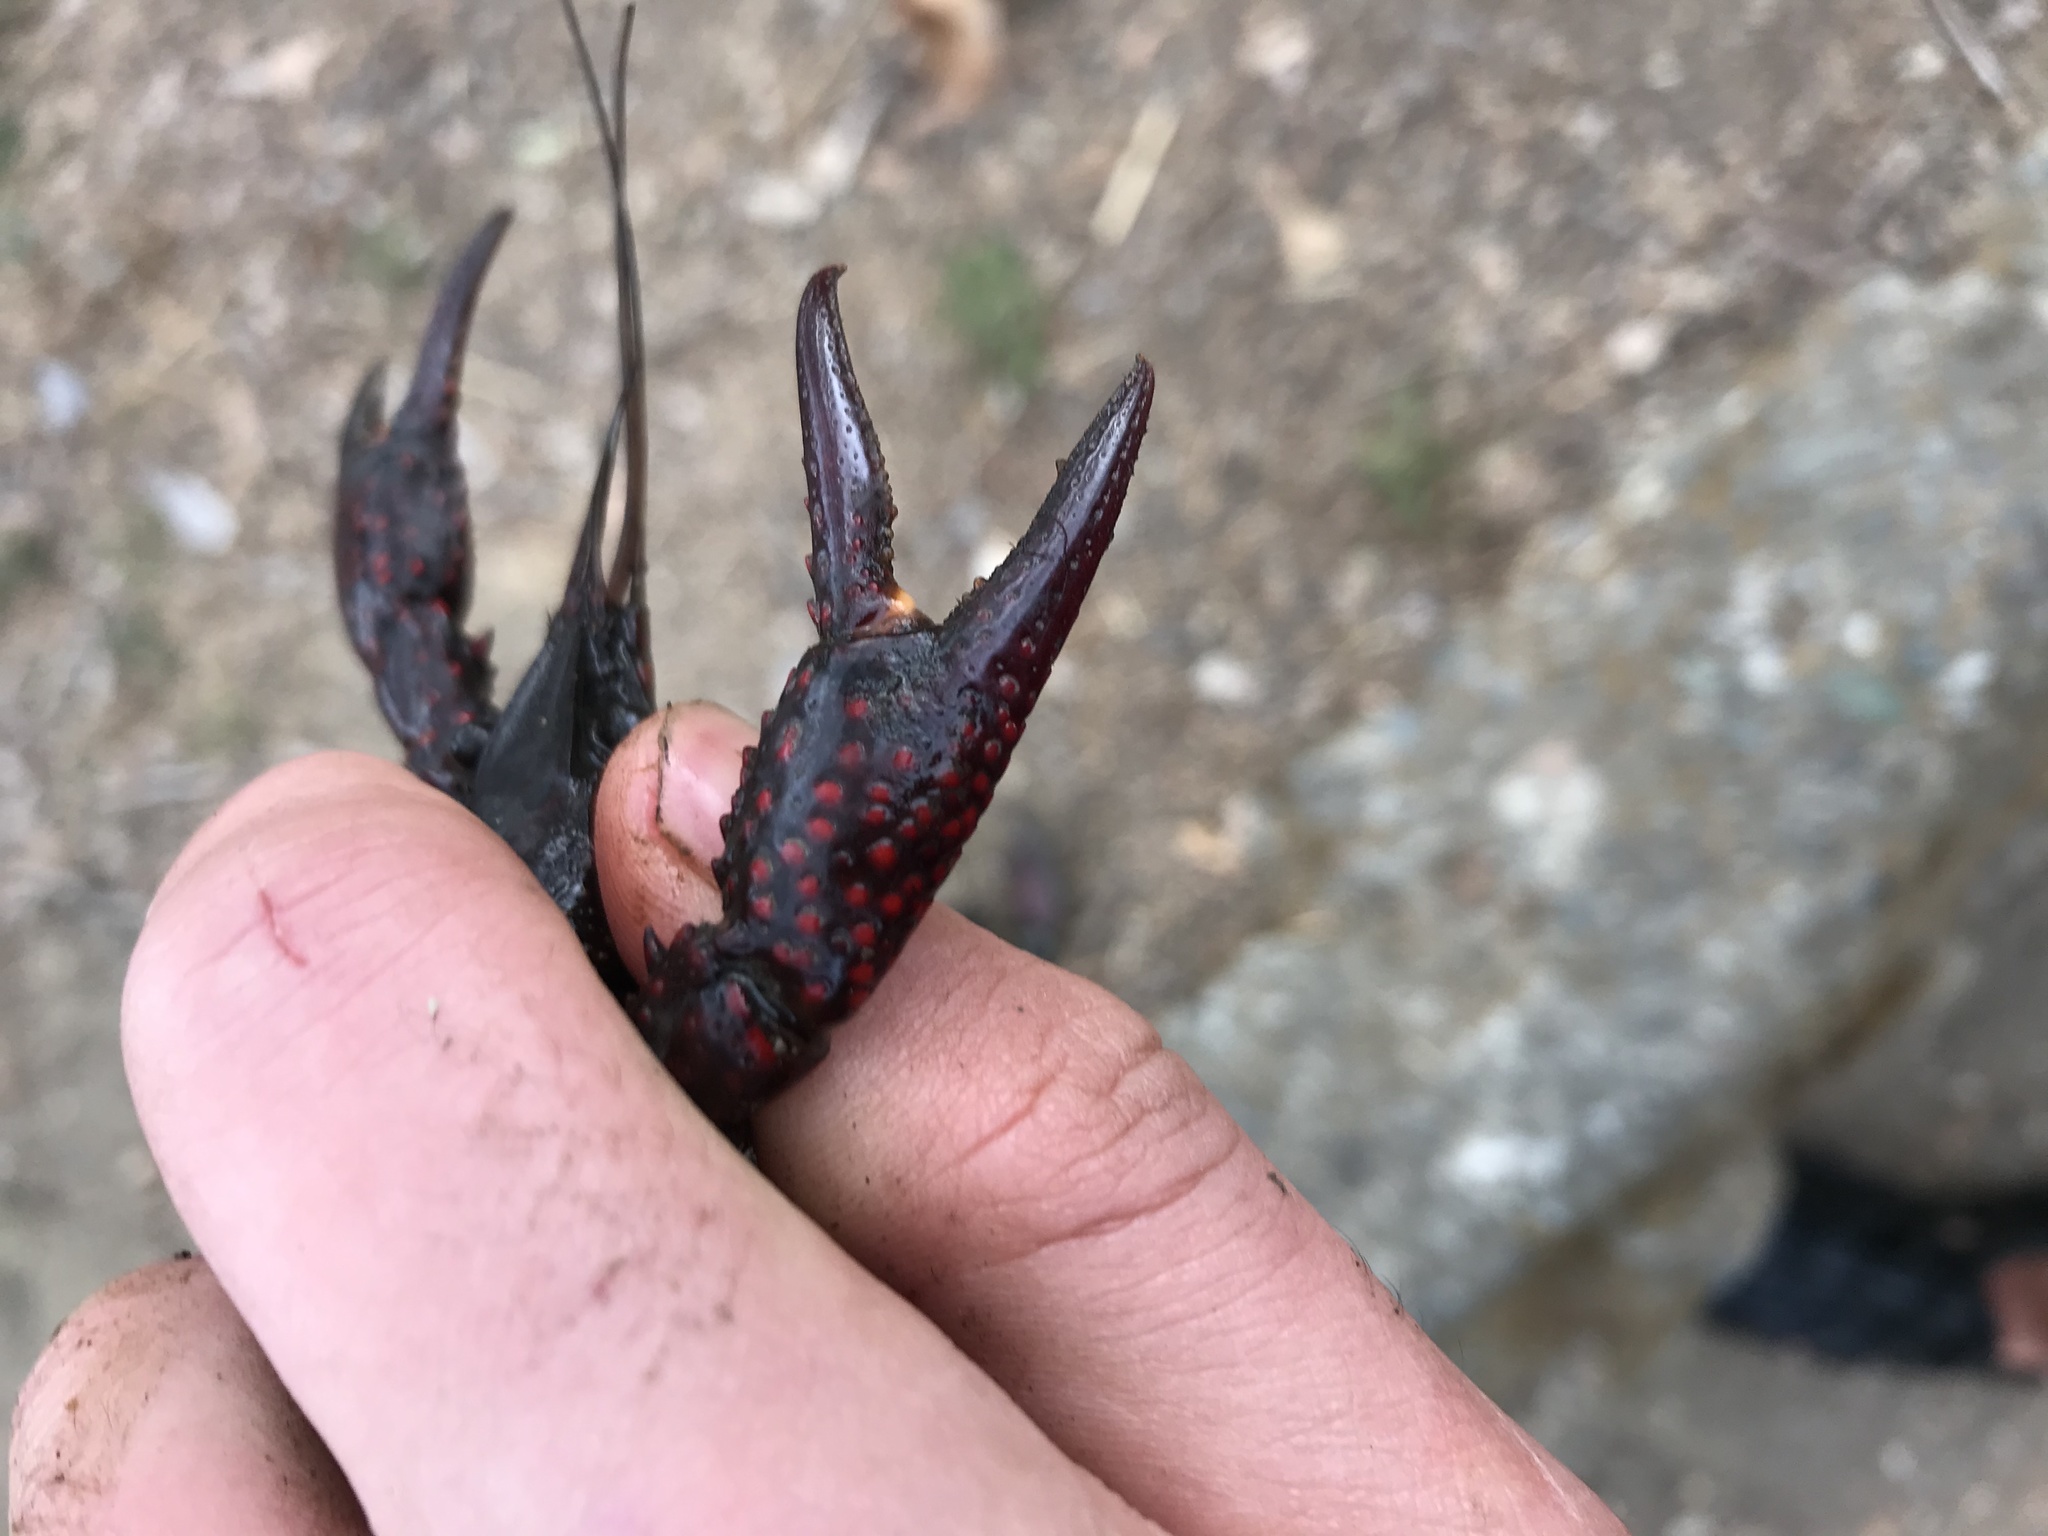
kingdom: Animalia
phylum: Arthropoda
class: Malacostraca
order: Decapoda
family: Cambaridae
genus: Procambarus
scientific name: Procambarus clarkii
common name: Red swamp crayfish
